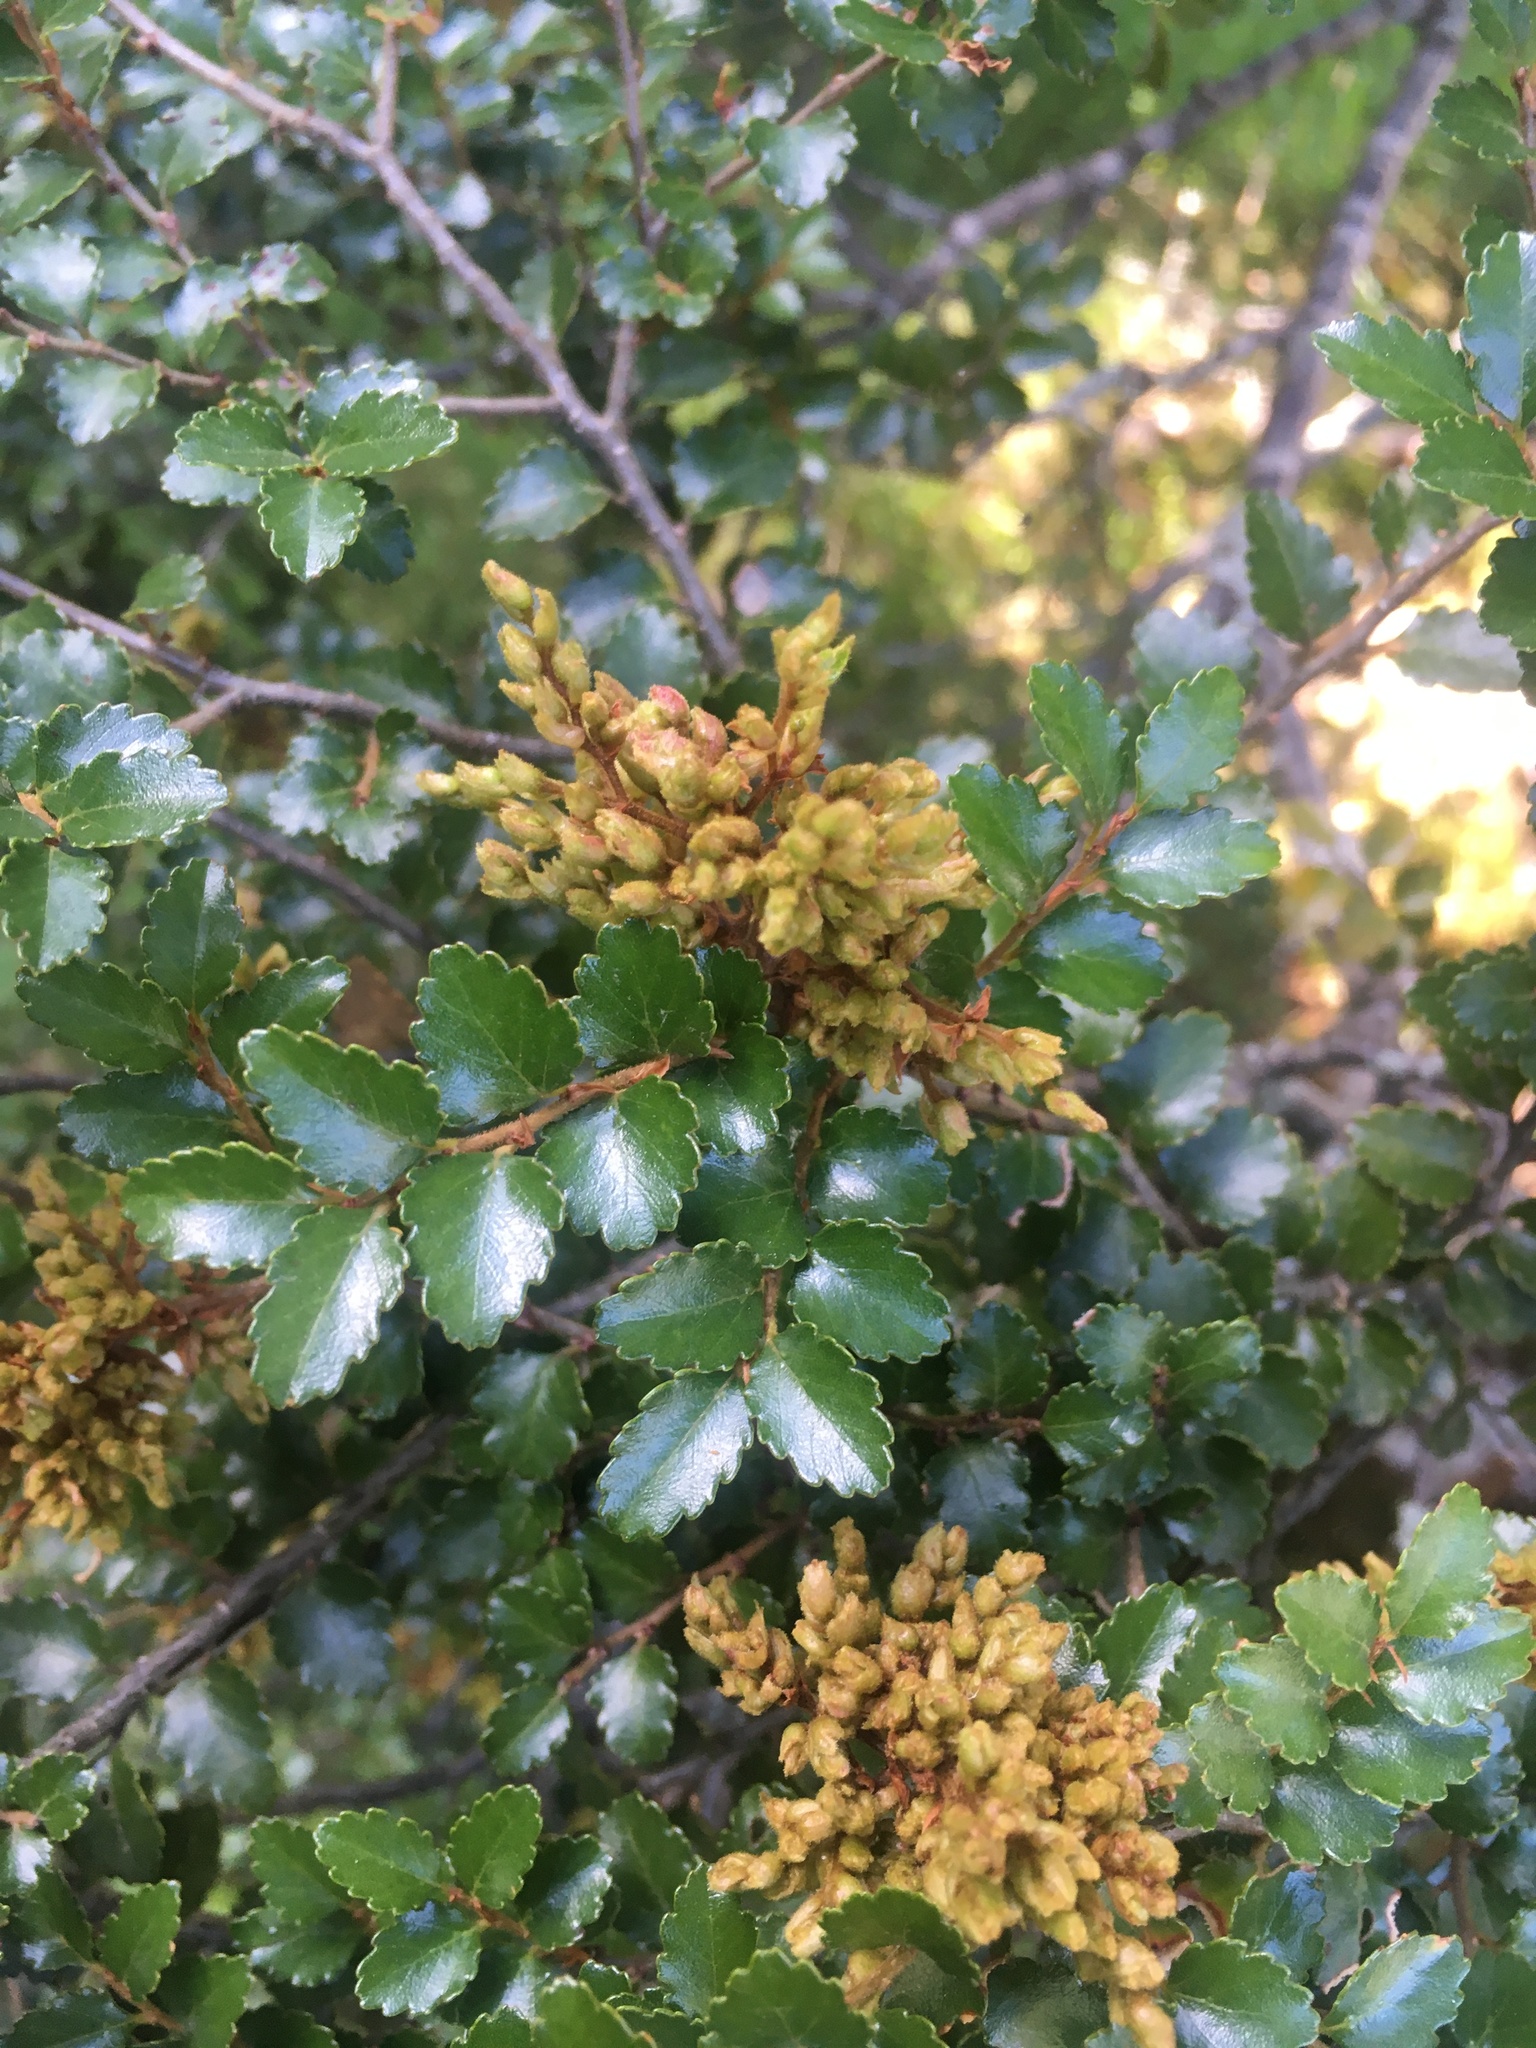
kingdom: Plantae
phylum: Tracheophyta
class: Magnoliopsida
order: Fagales
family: Nothofagaceae
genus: Nothofagus
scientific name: Nothofagus menziesii
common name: Silver beech
